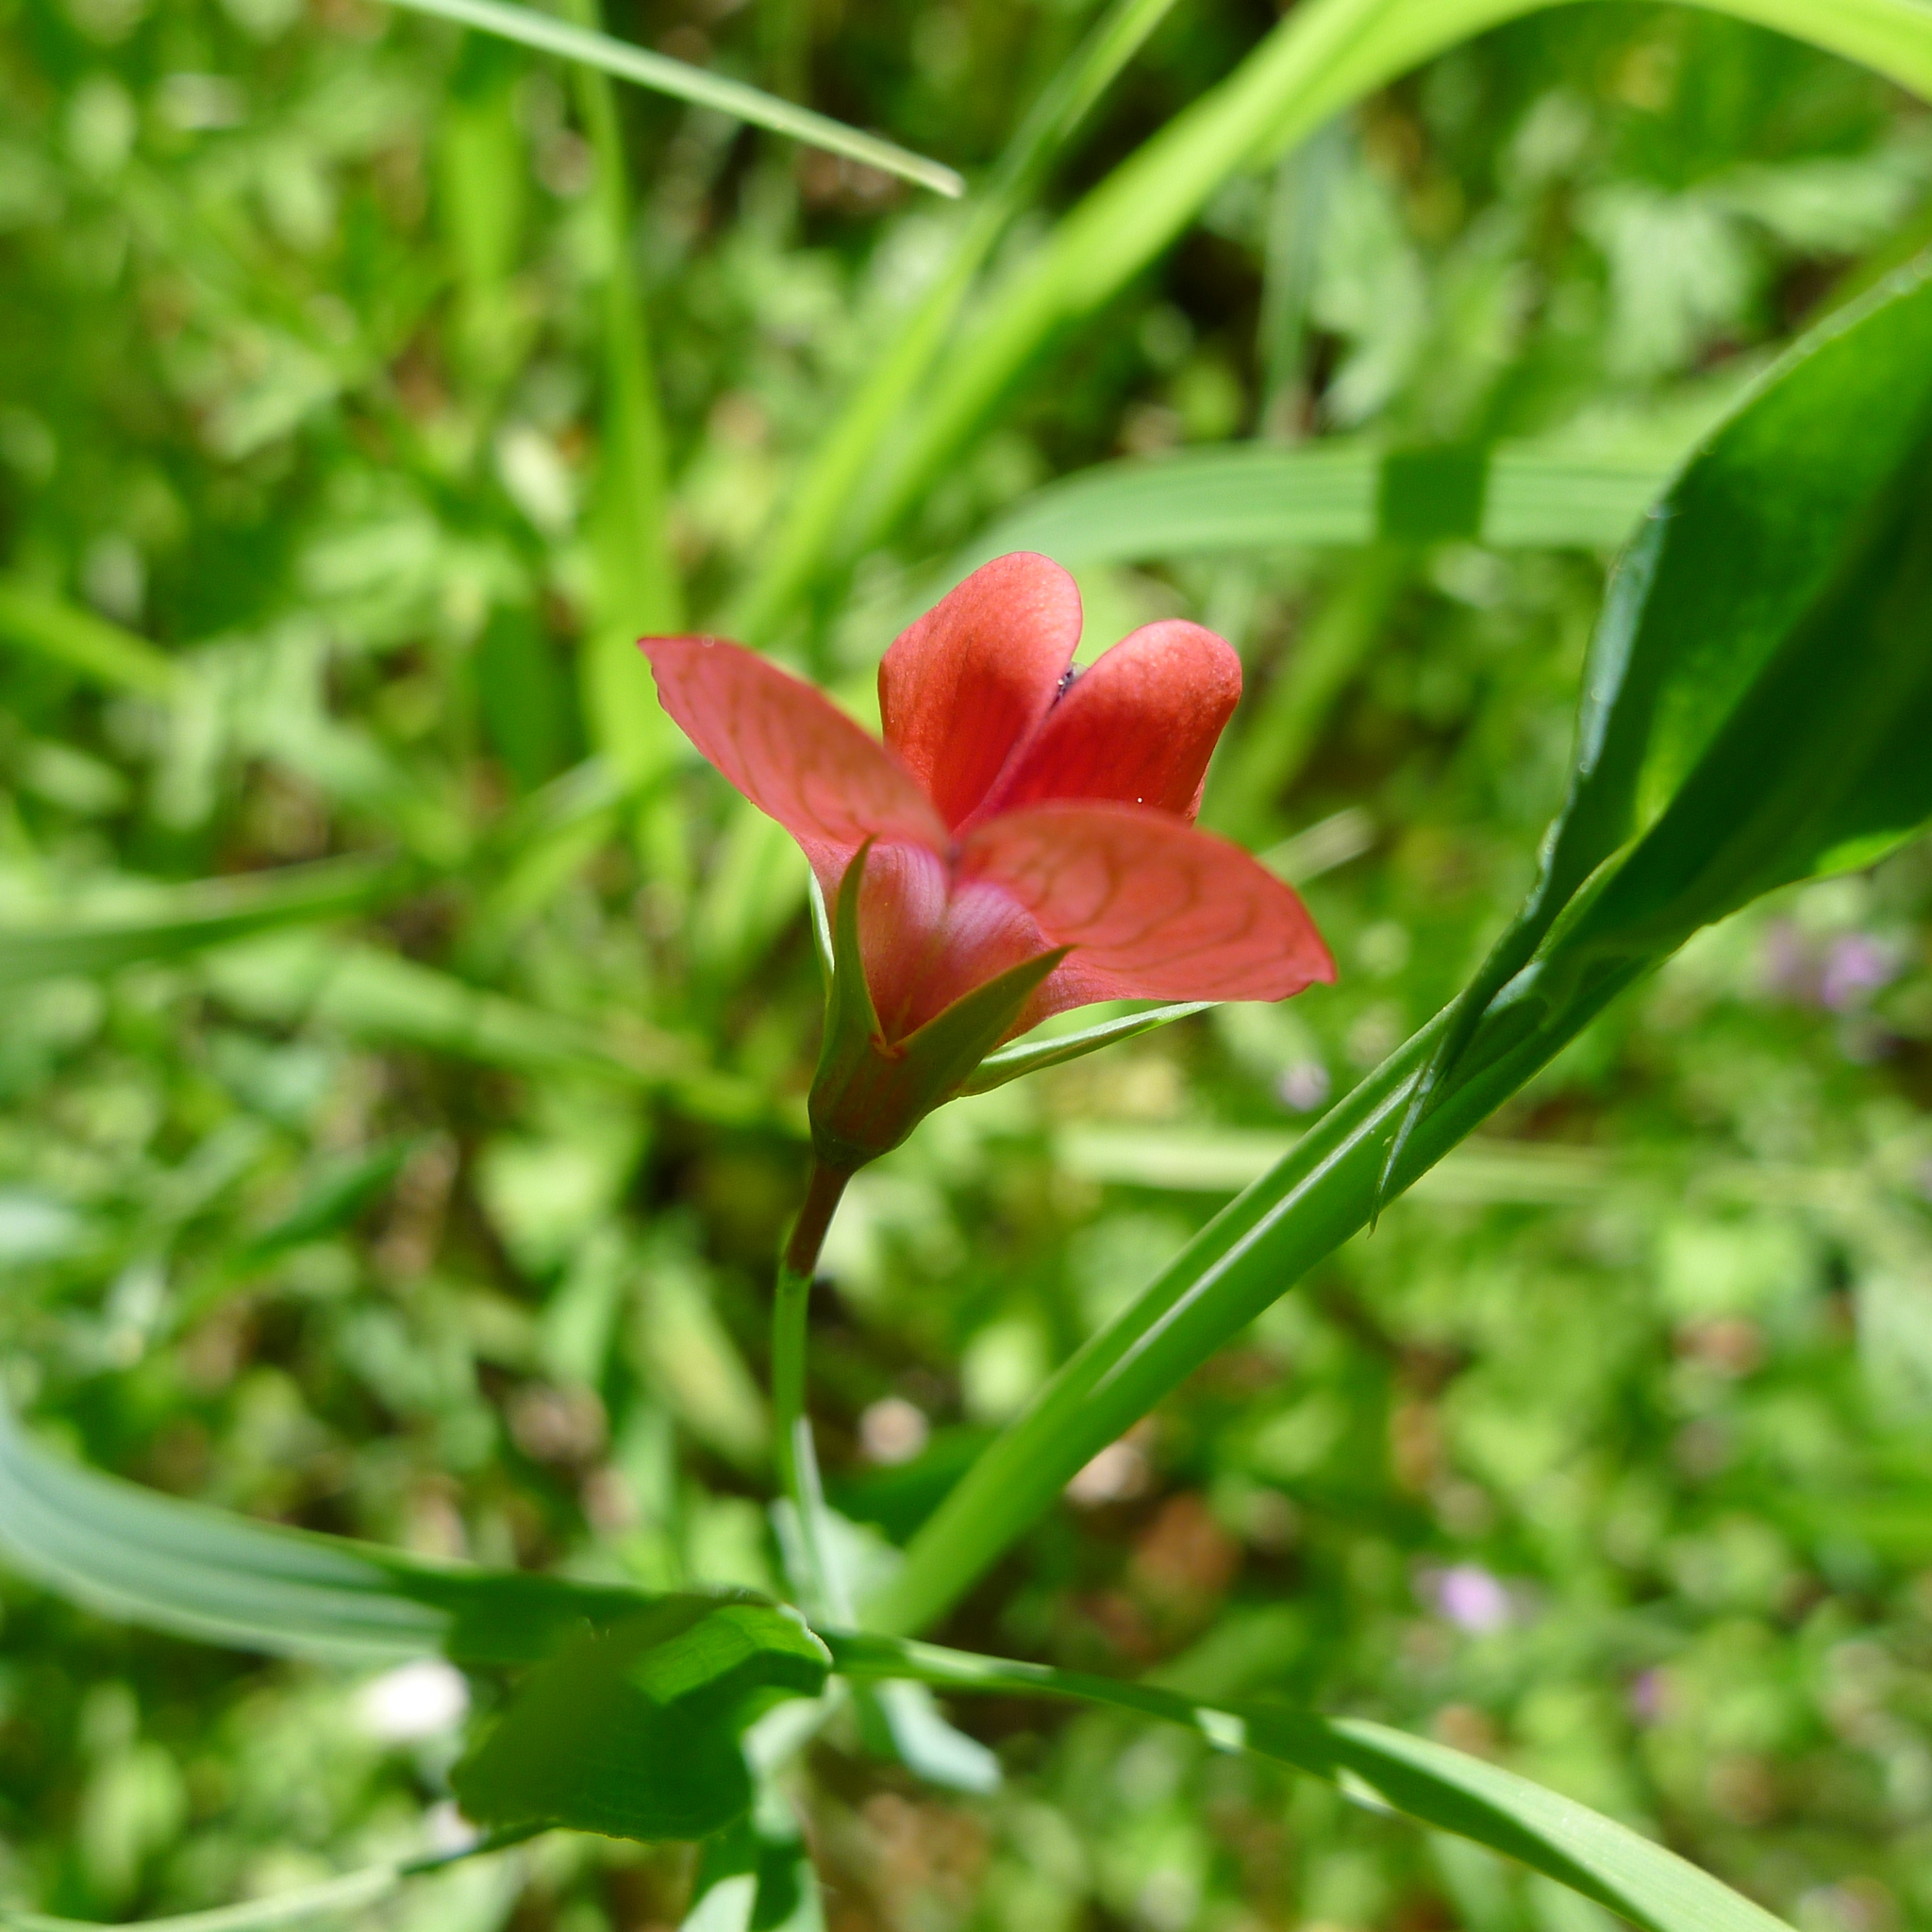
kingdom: Plantae
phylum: Tracheophyta
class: Magnoliopsida
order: Fabales
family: Fabaceae
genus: Lathyrus
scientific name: Lathyrus cicera
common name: Red vetchling
